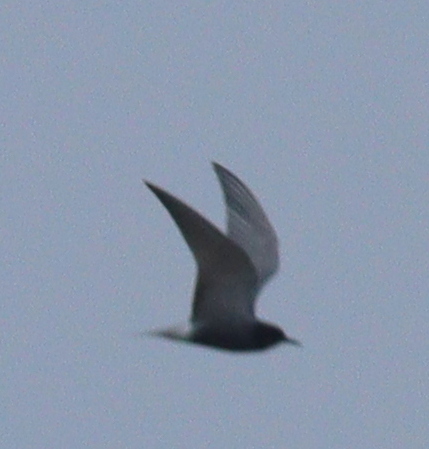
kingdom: Animalia
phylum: Chordata
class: Aves
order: Charadriiformes
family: Laridae
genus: Chlidonias
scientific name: Chlidonias niger
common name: Black tern
